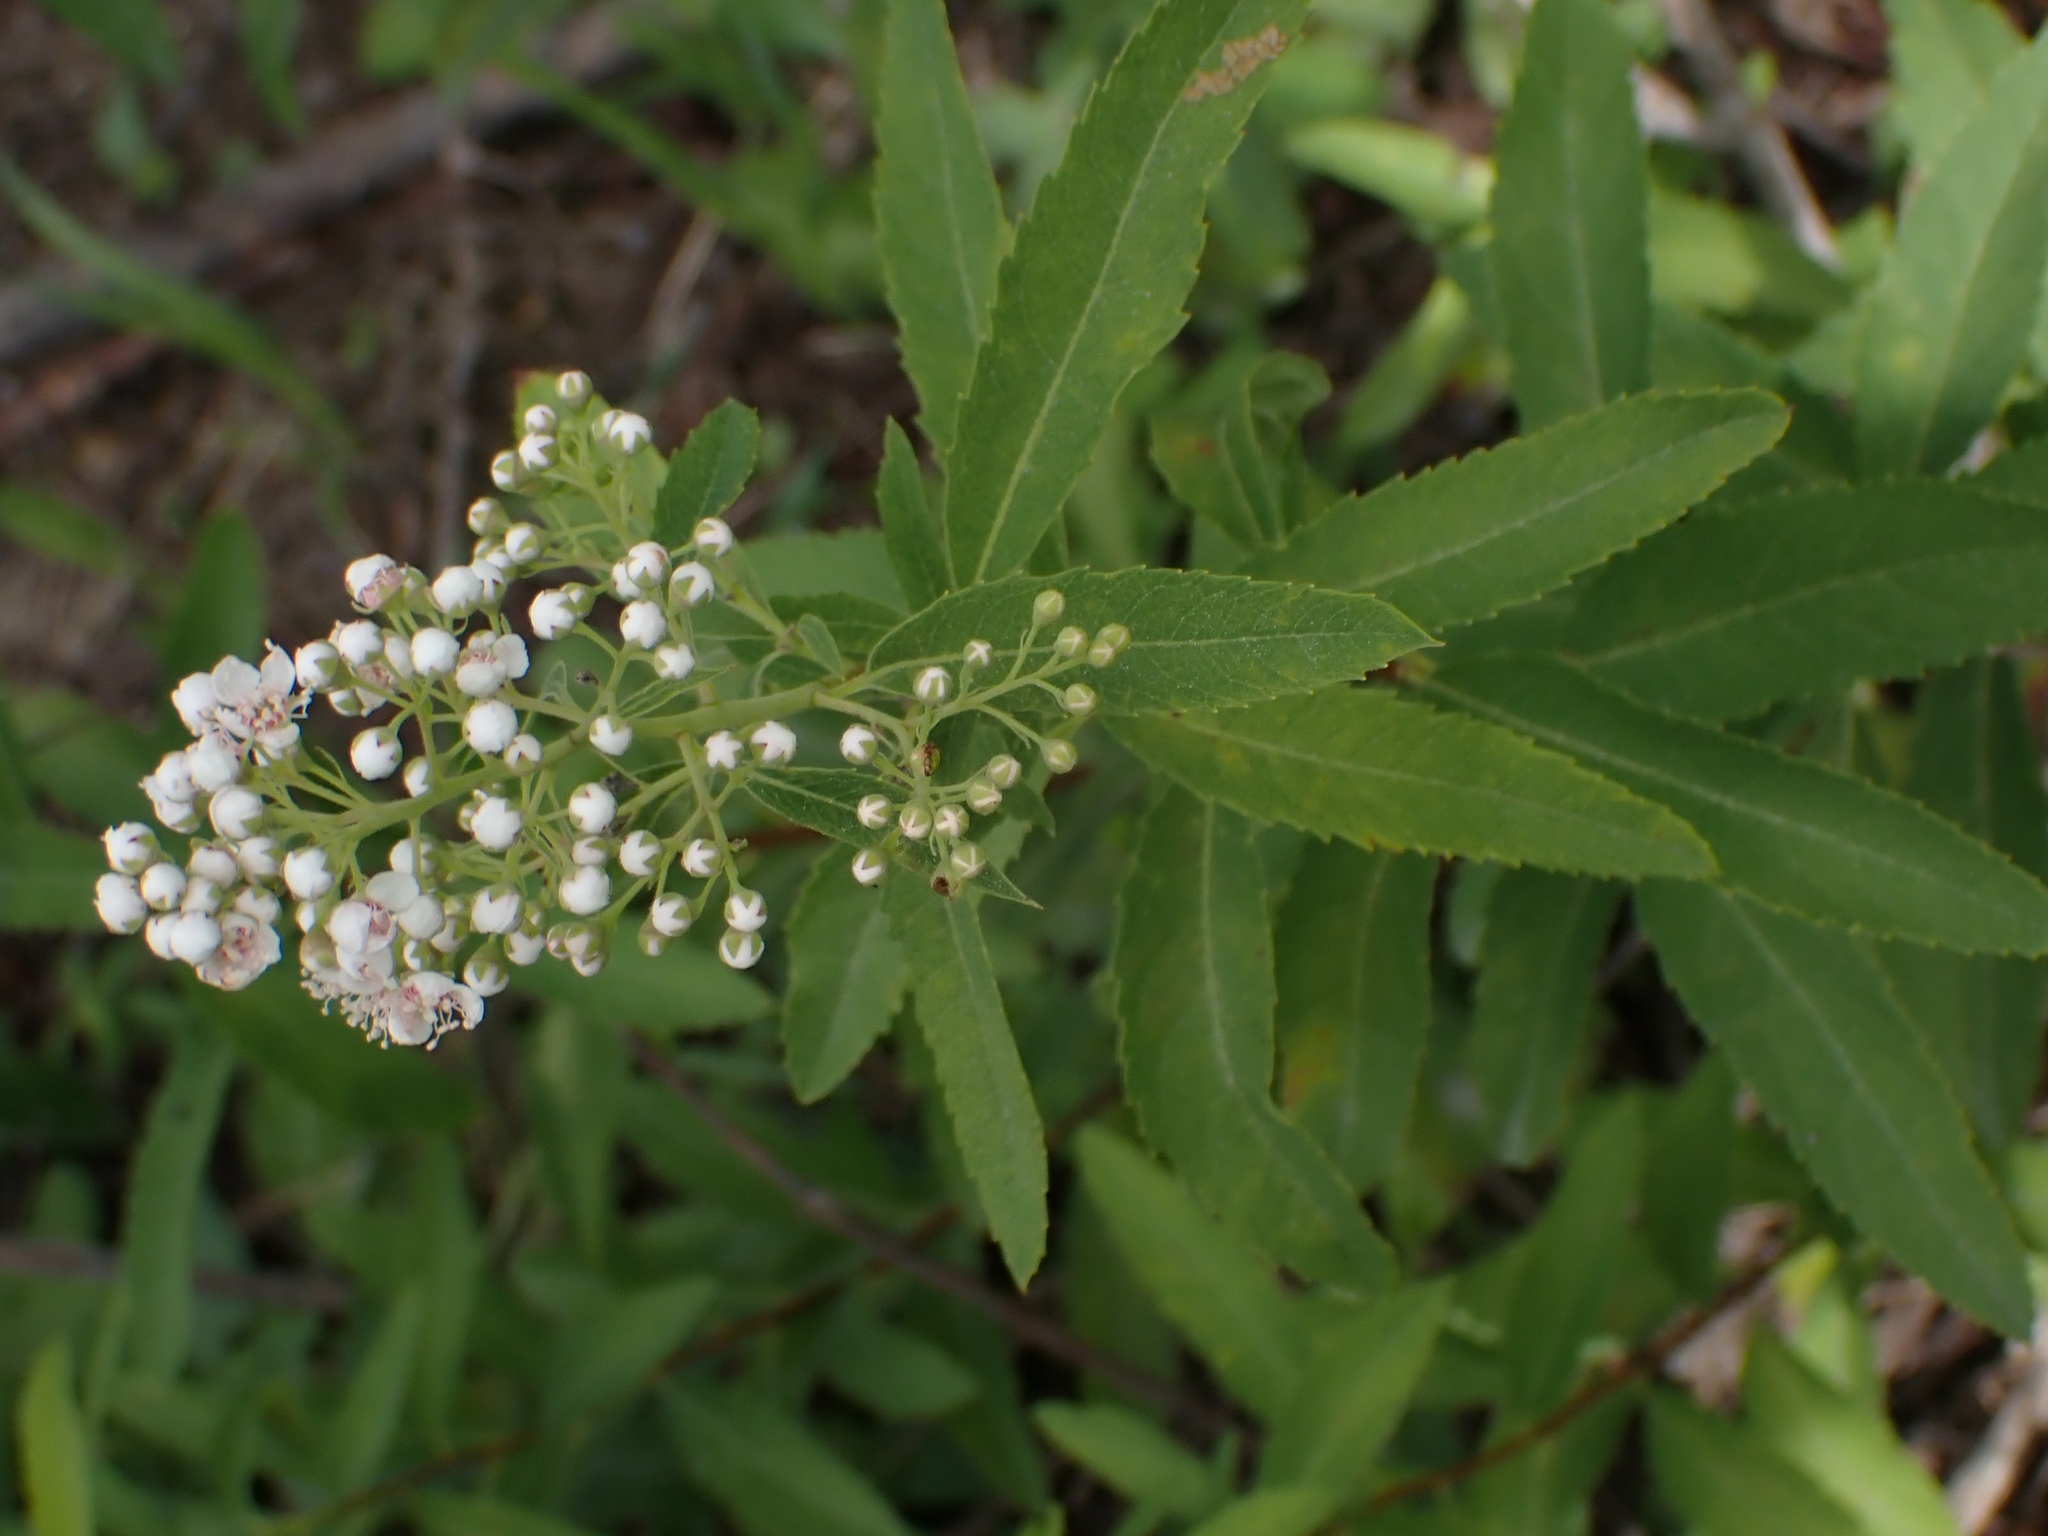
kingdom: Plantae
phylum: Tracheophyta
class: Magnoliopsida
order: Rosales
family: Rosaceae
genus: Spiraea
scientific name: Spiraea alba
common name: Pale bridewort
